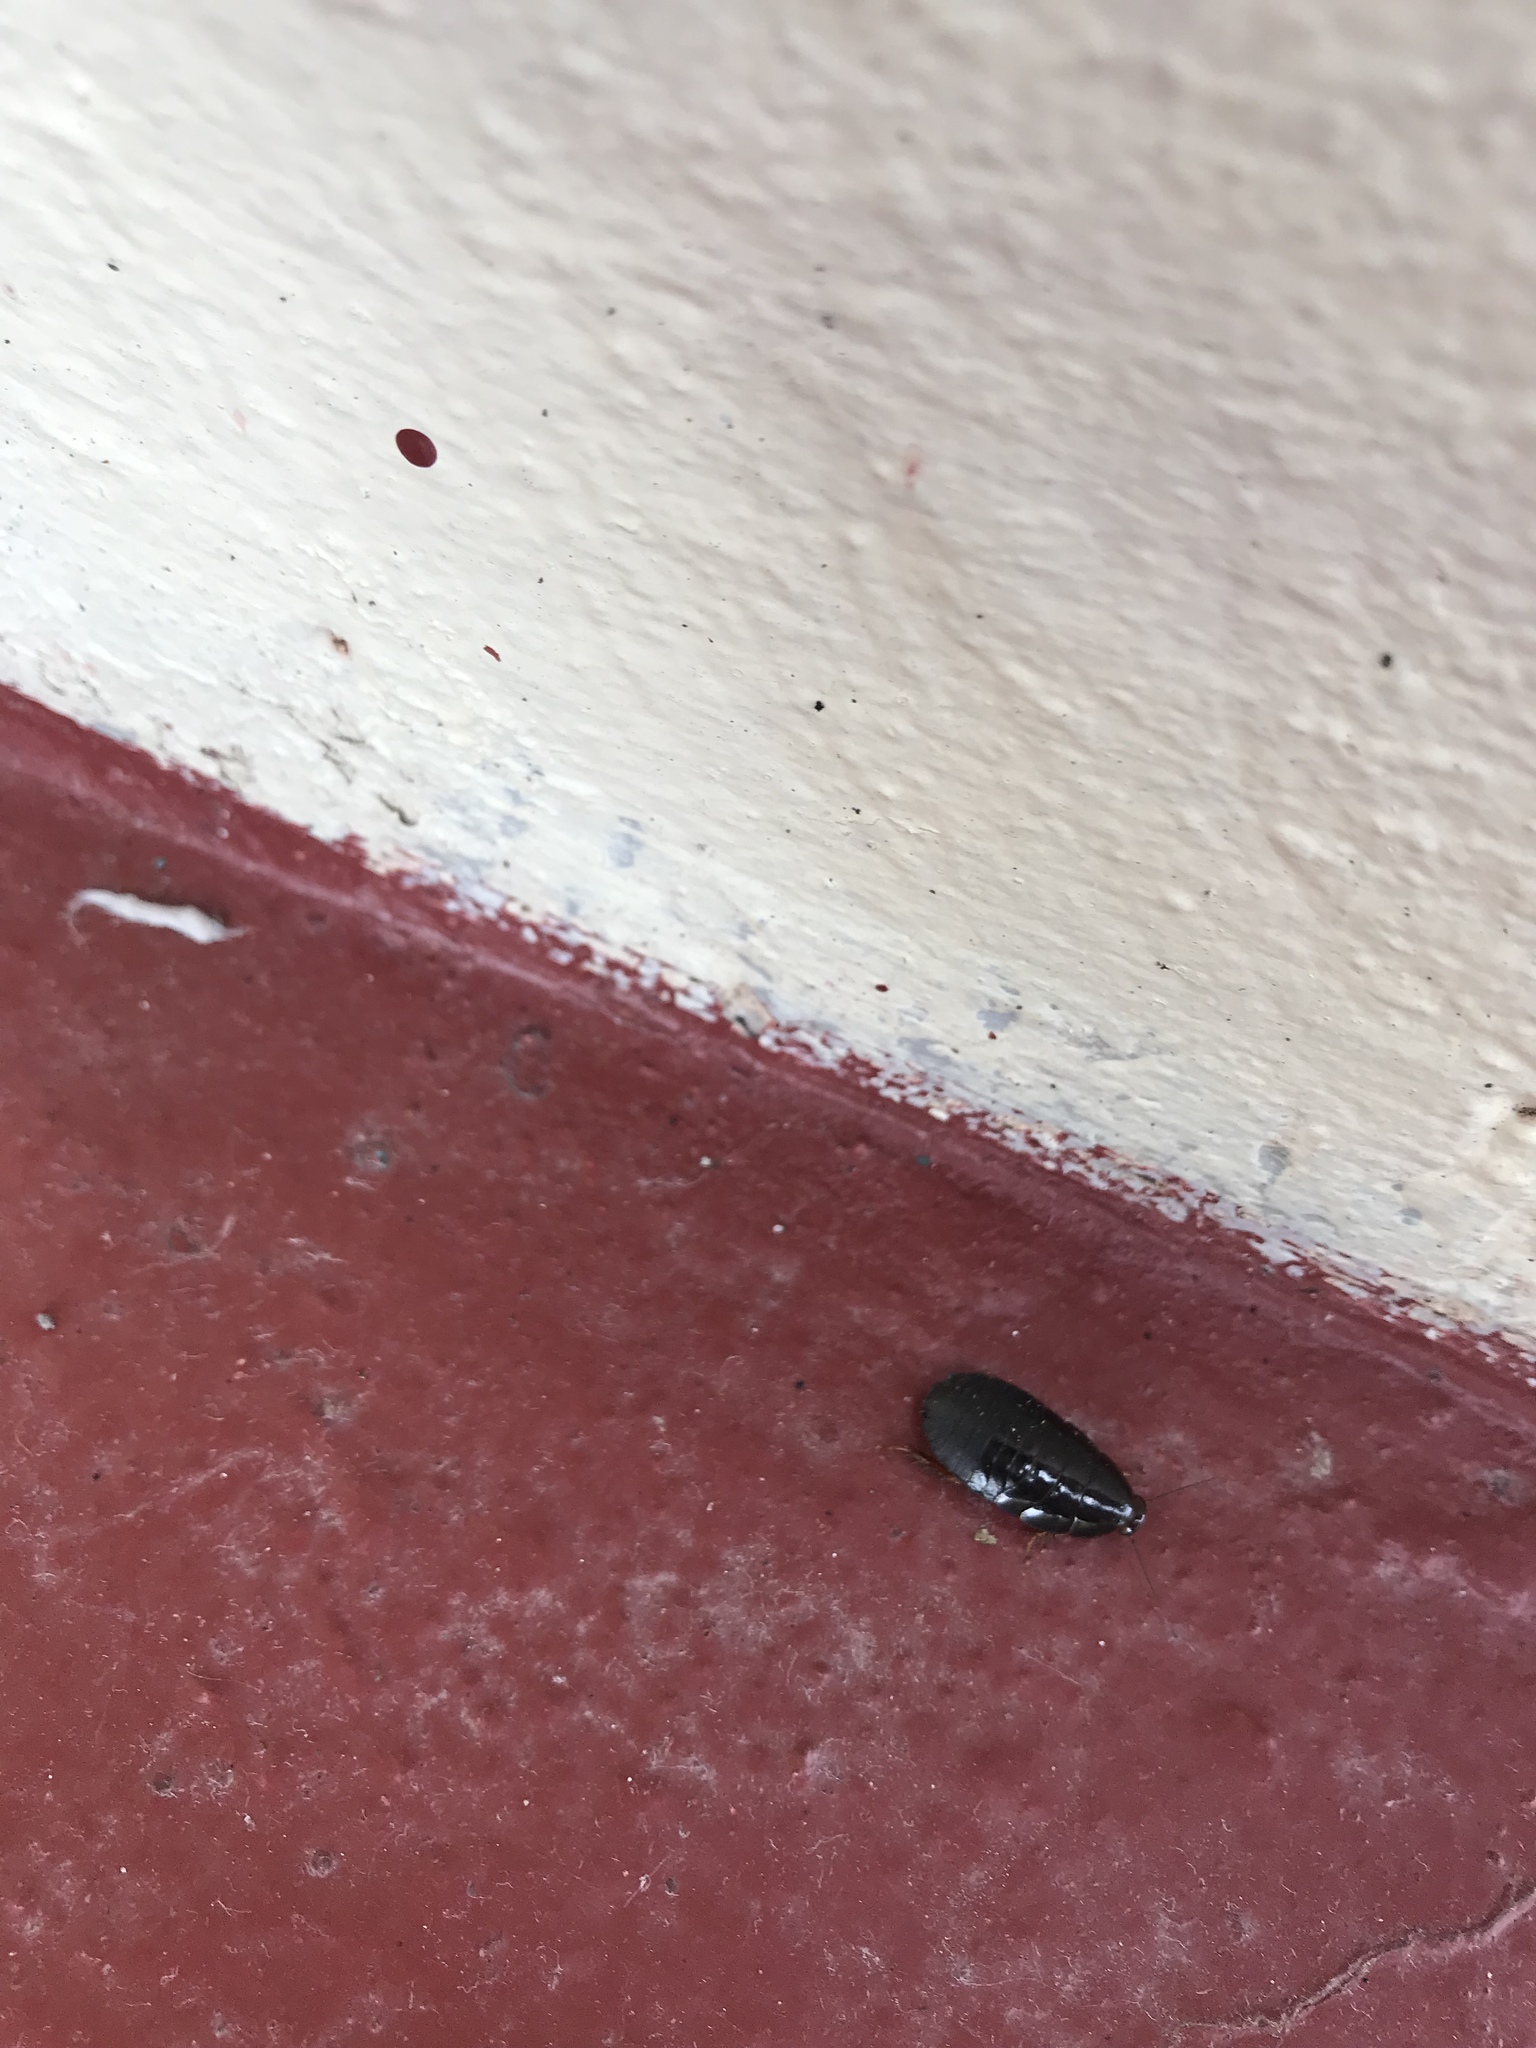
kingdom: Animalia
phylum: Arthropoda
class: Insecta
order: Blattodea
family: Blaberidae
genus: Pycnoscelus
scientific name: Pycnoscelus surinamensis
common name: Surinam cockroach
